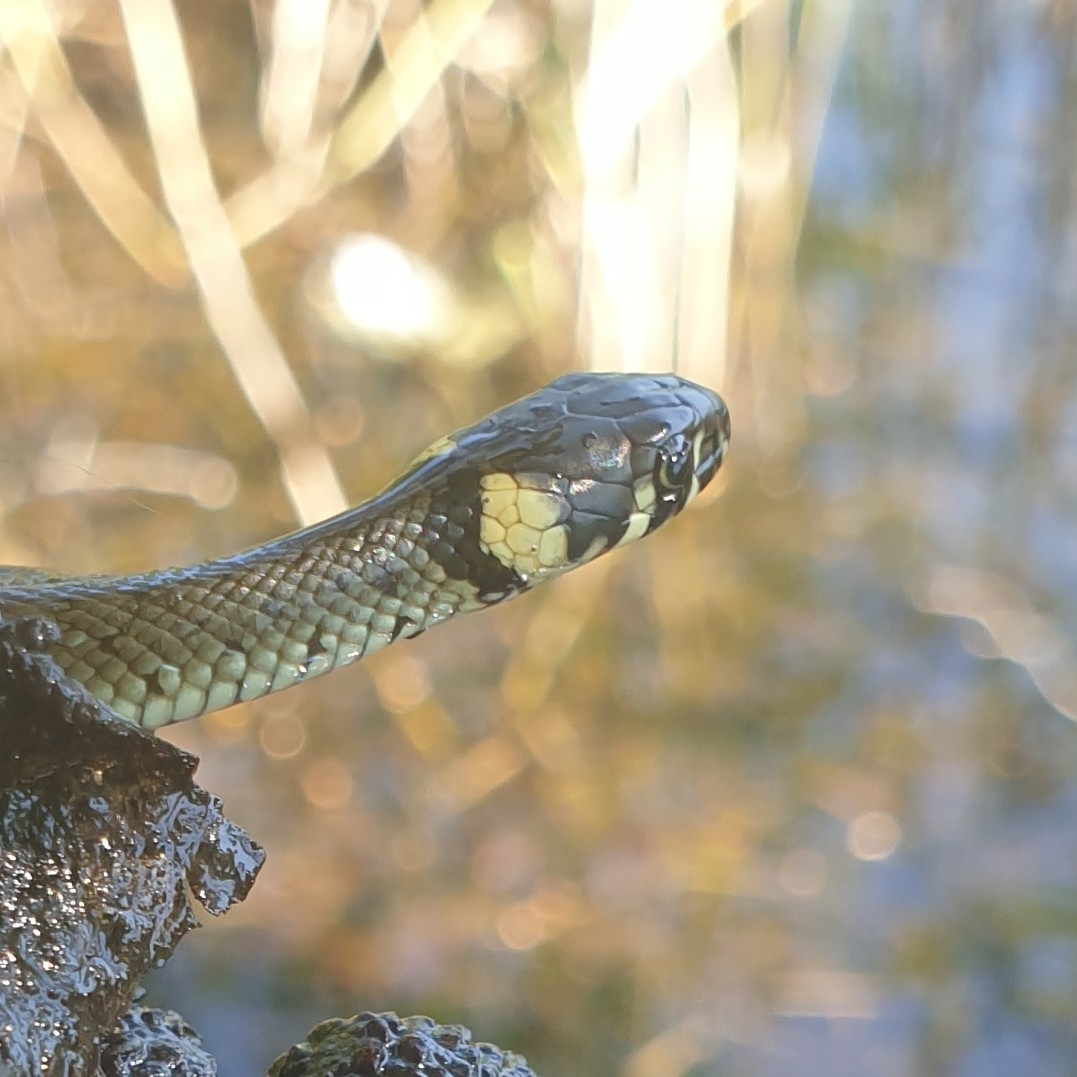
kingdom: Animalia
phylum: Chordata
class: Squamata
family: Colubridae
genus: Natrix
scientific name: Natrix natrix
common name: Grass snake
